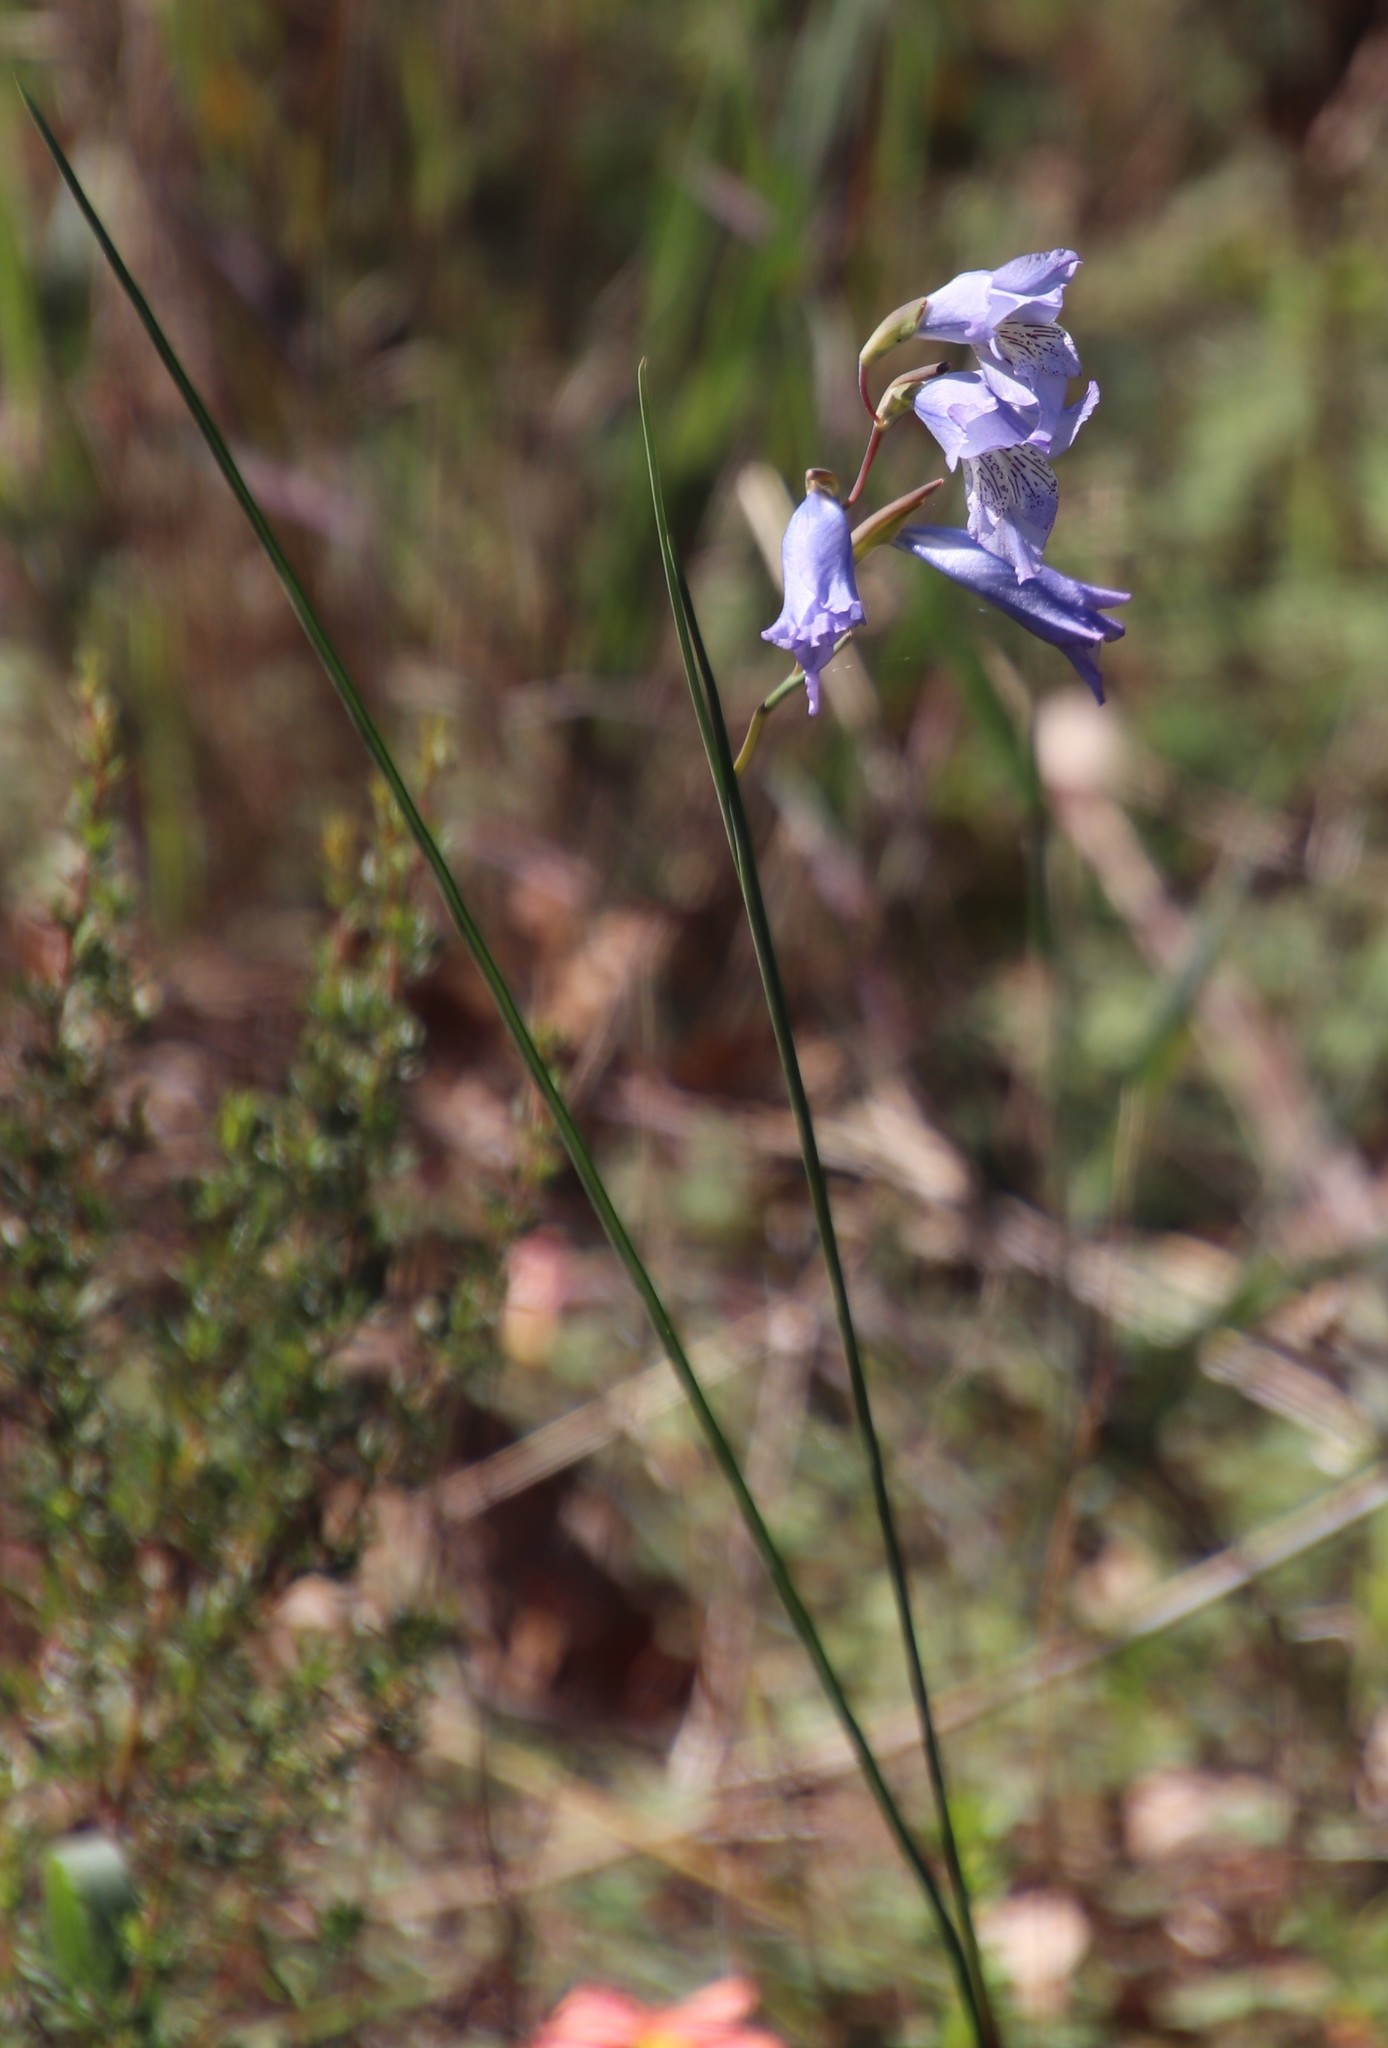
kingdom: Plantae
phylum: Tracheophyta
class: Liliopsida
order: Asparagales
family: Iridaceae
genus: Gladiolus
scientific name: Gladiolus gracilis
